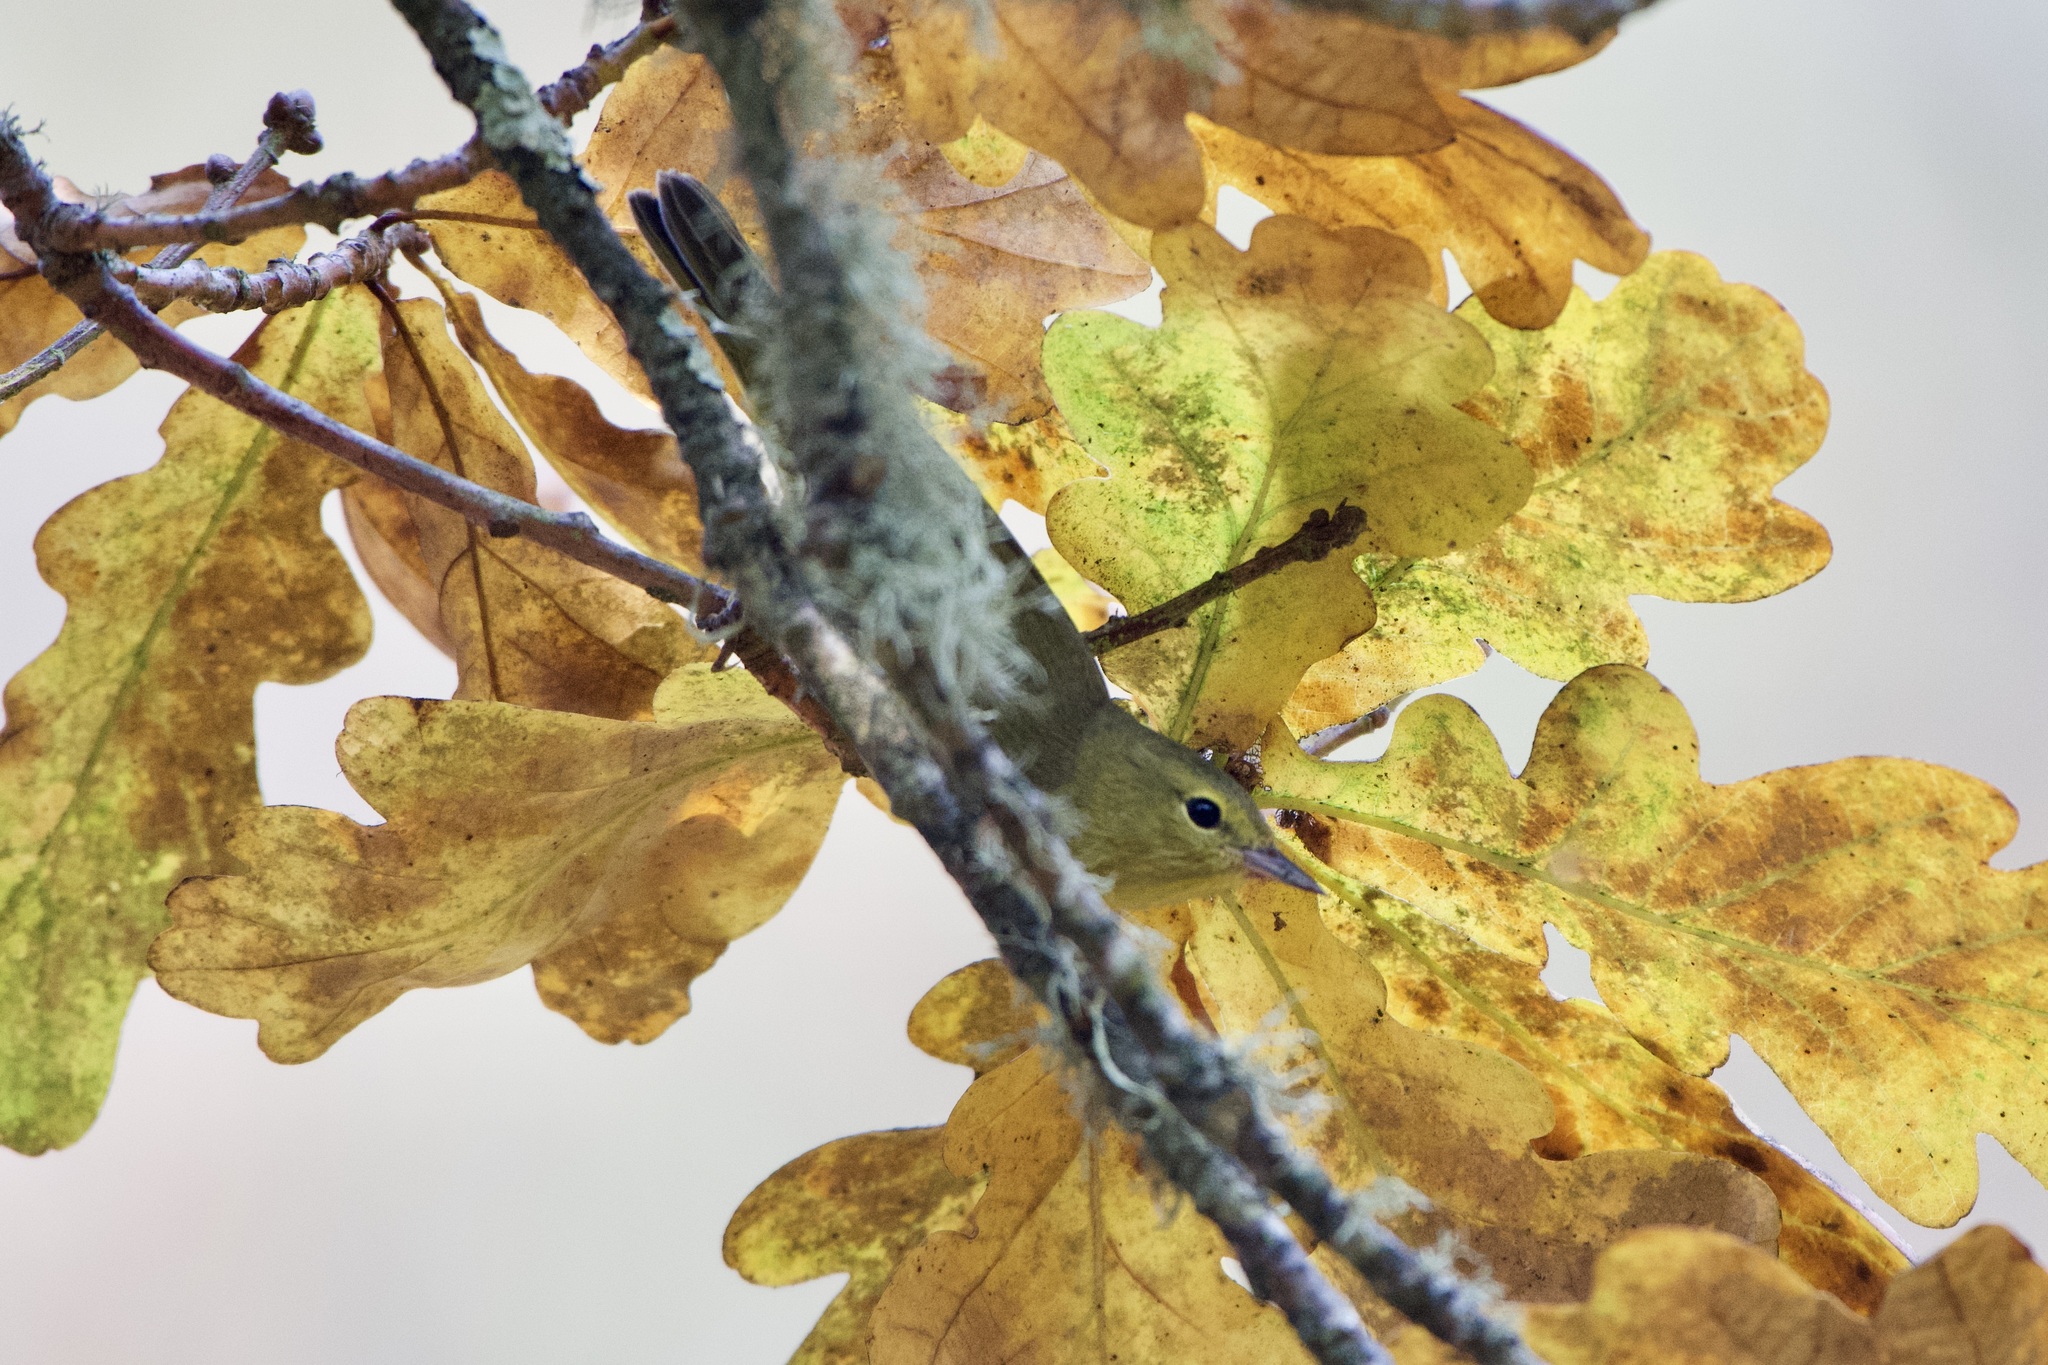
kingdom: Animalia
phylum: Chordata
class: Aves
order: Passeriformes
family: Parulidae
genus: Leiothlypis
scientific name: Leiothlypis celata
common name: Orange-crowned warbler
